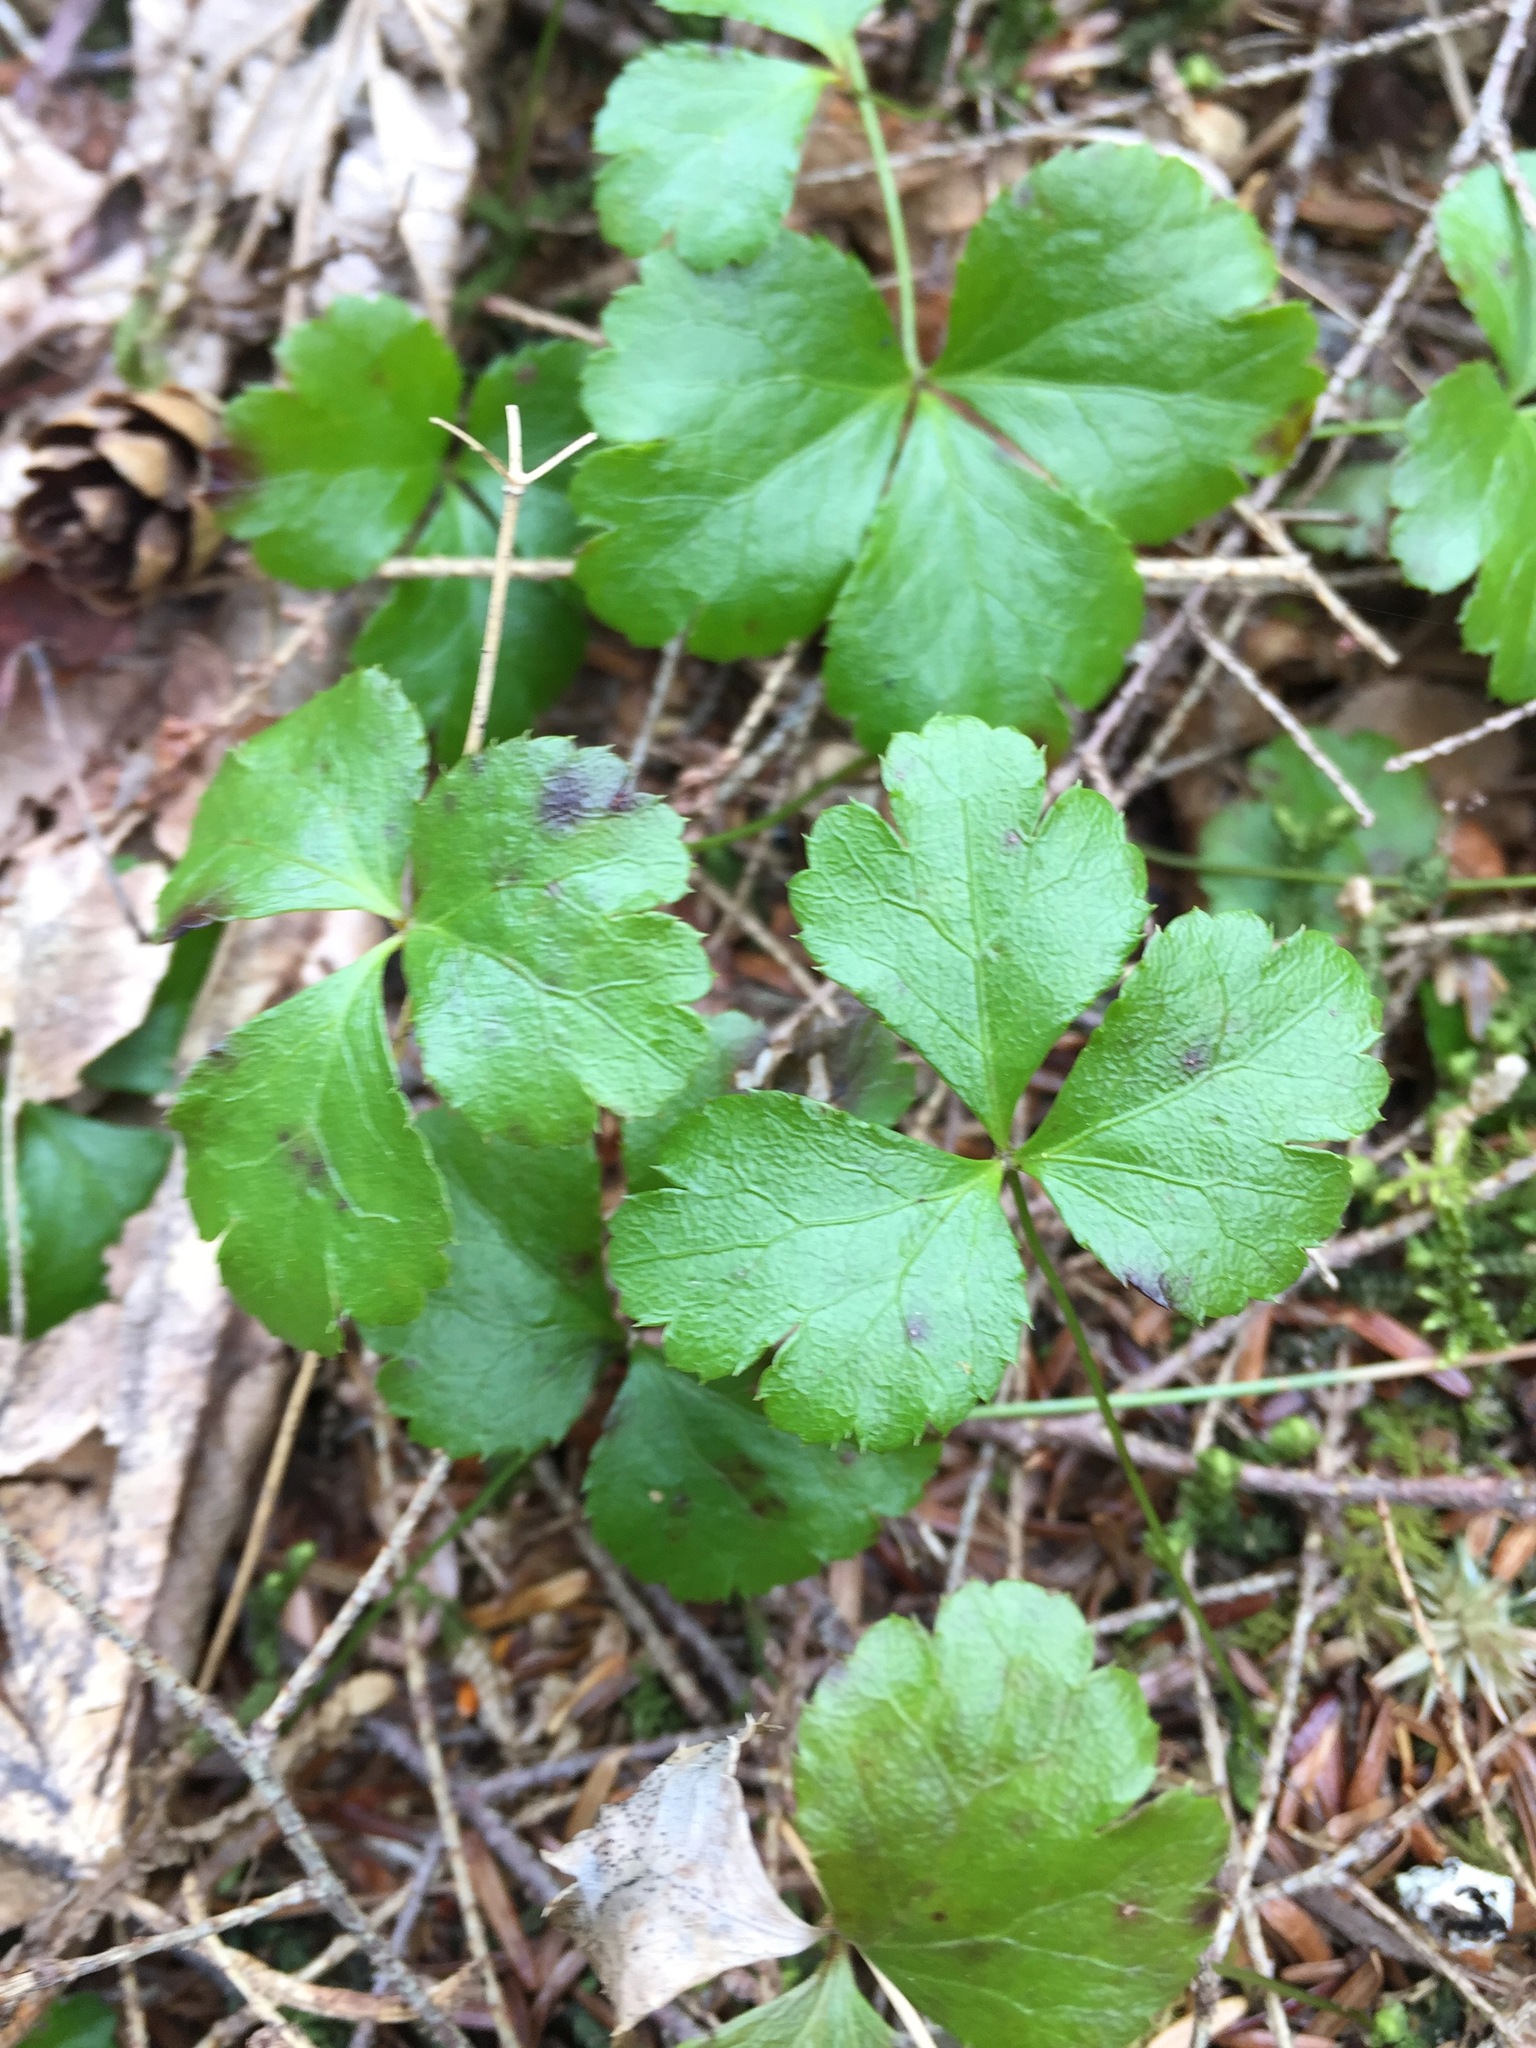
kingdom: Plantae
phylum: Tracheophyta
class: Magnoliopsida
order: Ranunculales
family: Ranunculaceae
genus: Coptis
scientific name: Coptis trifolia
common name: Canker-root
